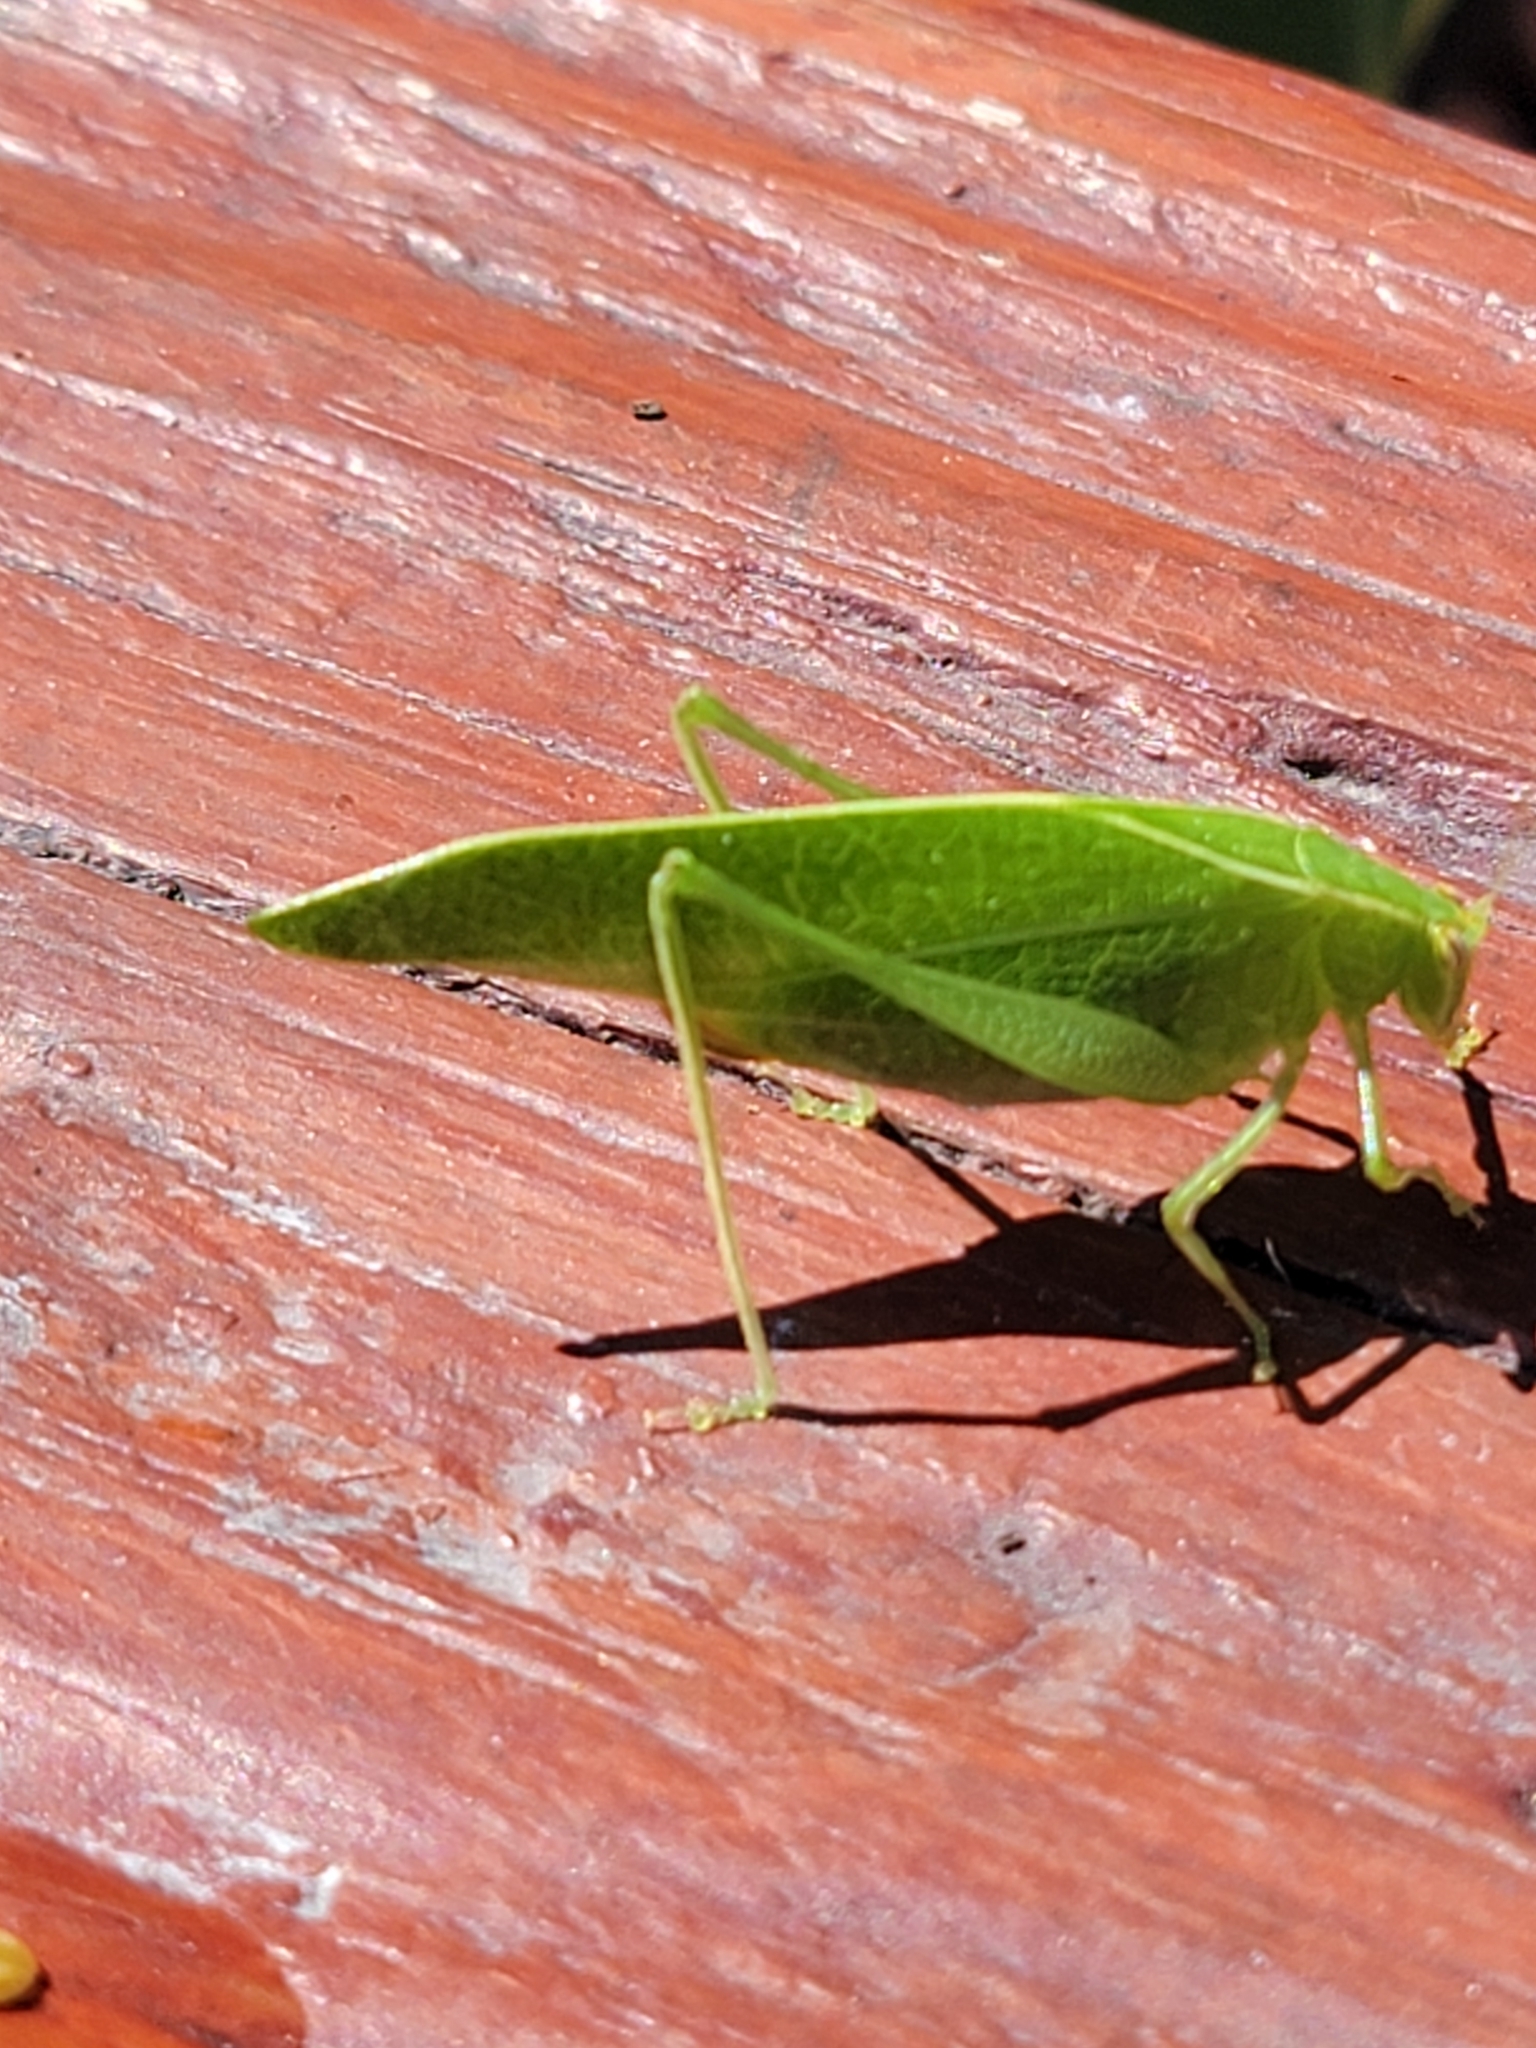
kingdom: Animalia
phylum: Arthropoda
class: Insecta
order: Orthoptera
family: Tettigoniidae
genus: Montezumina
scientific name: Montezumina modesta
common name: Modest katydid
